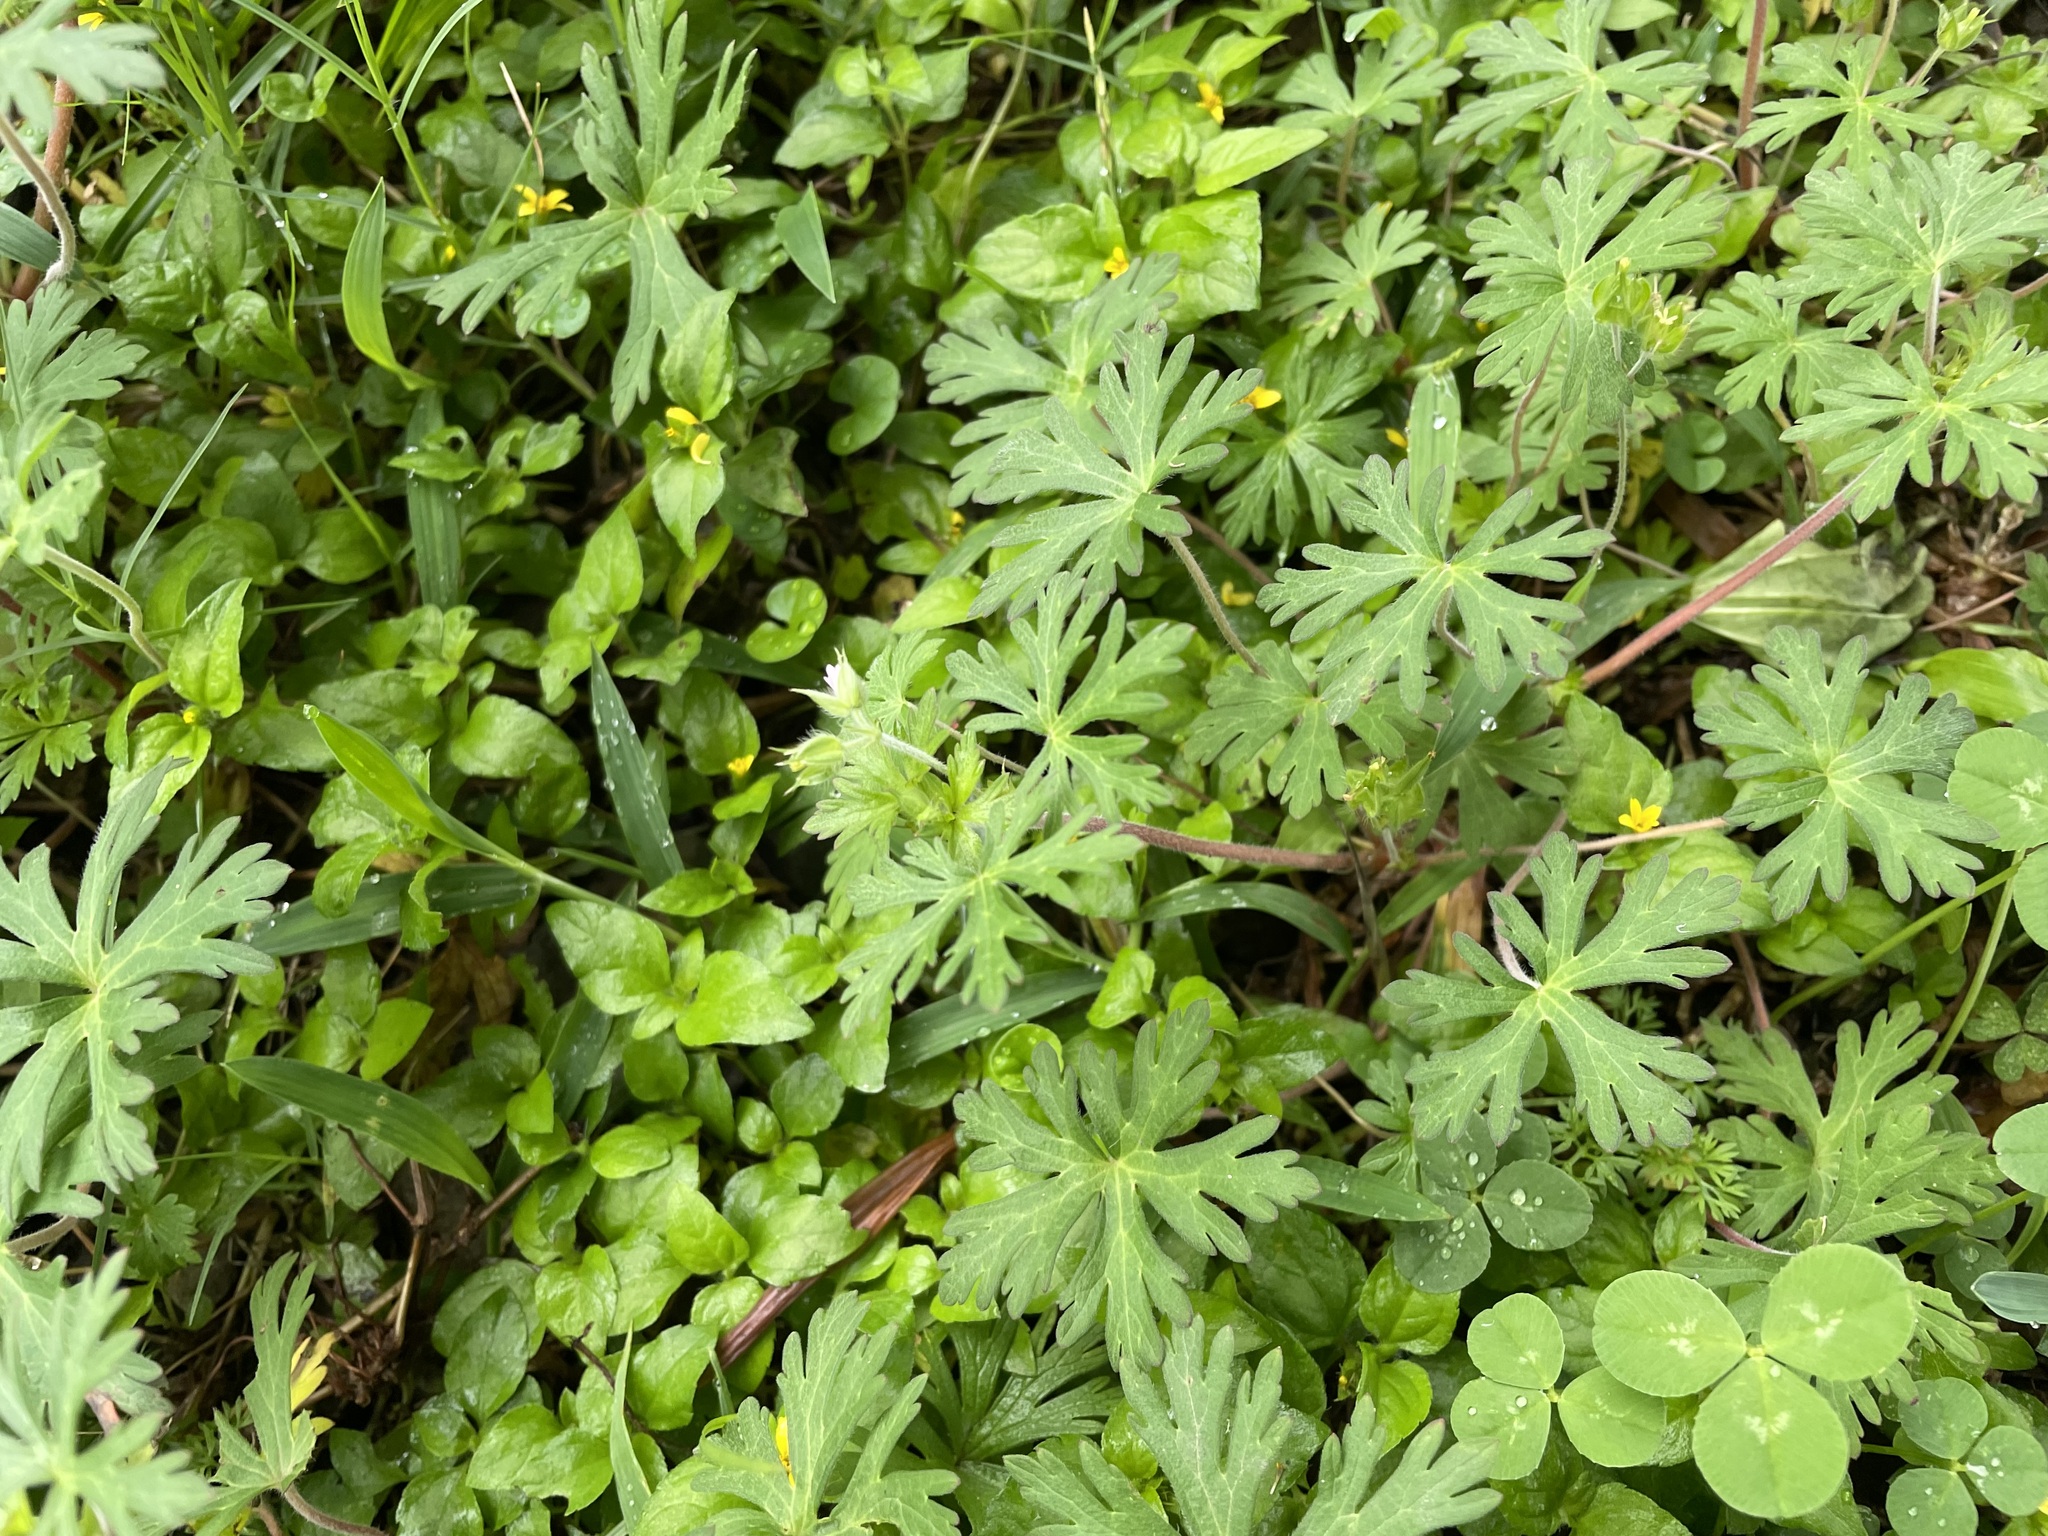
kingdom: Plantae
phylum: Tracheophyta
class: Magnoliopsida
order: Geraniales
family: Geraniaceae
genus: Geranium
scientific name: Geranium carolinianum
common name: Carolina crane's-bill
